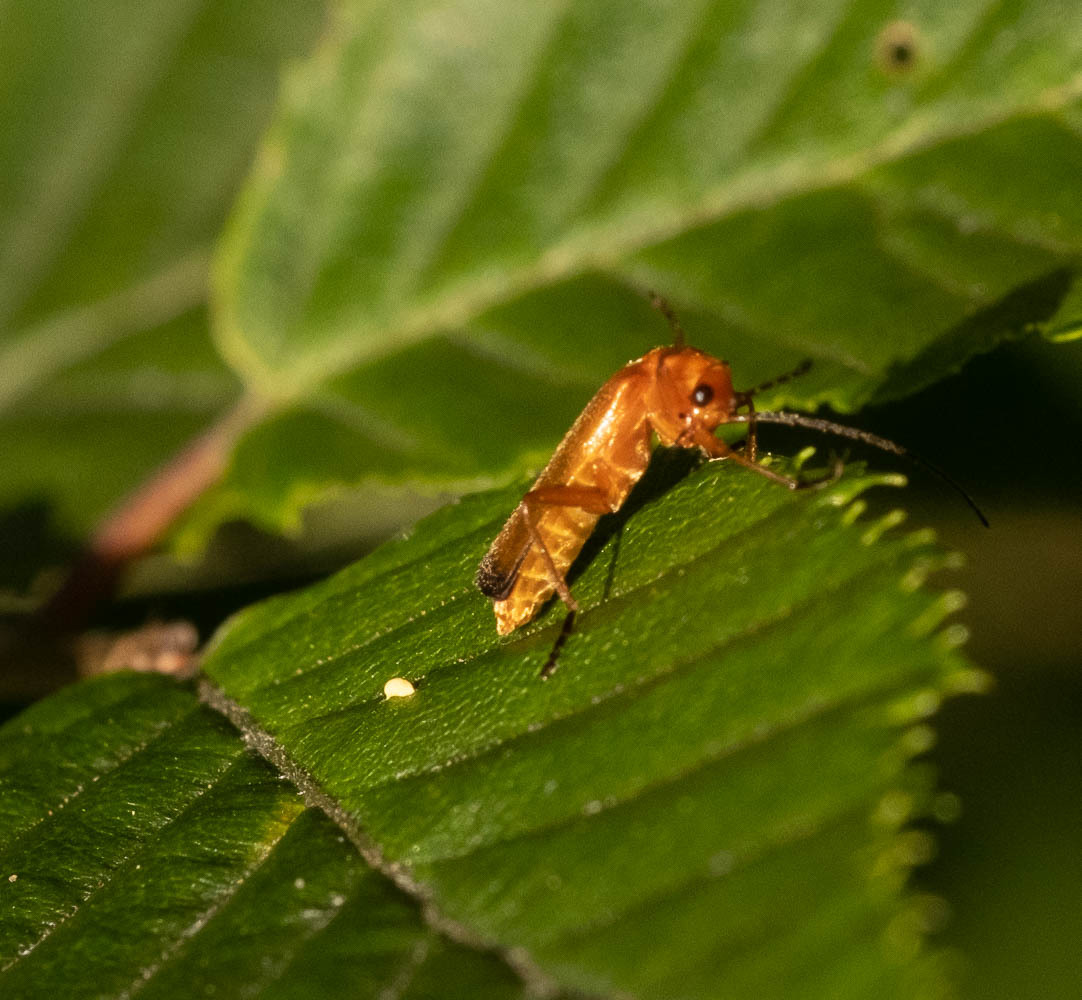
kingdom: Animalia
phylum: Arthropoda
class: Insecta
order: Coleoptera
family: Cantharidae
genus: Rhagonycha
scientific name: Rhagonycha fulva
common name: Common red soldier beetle
